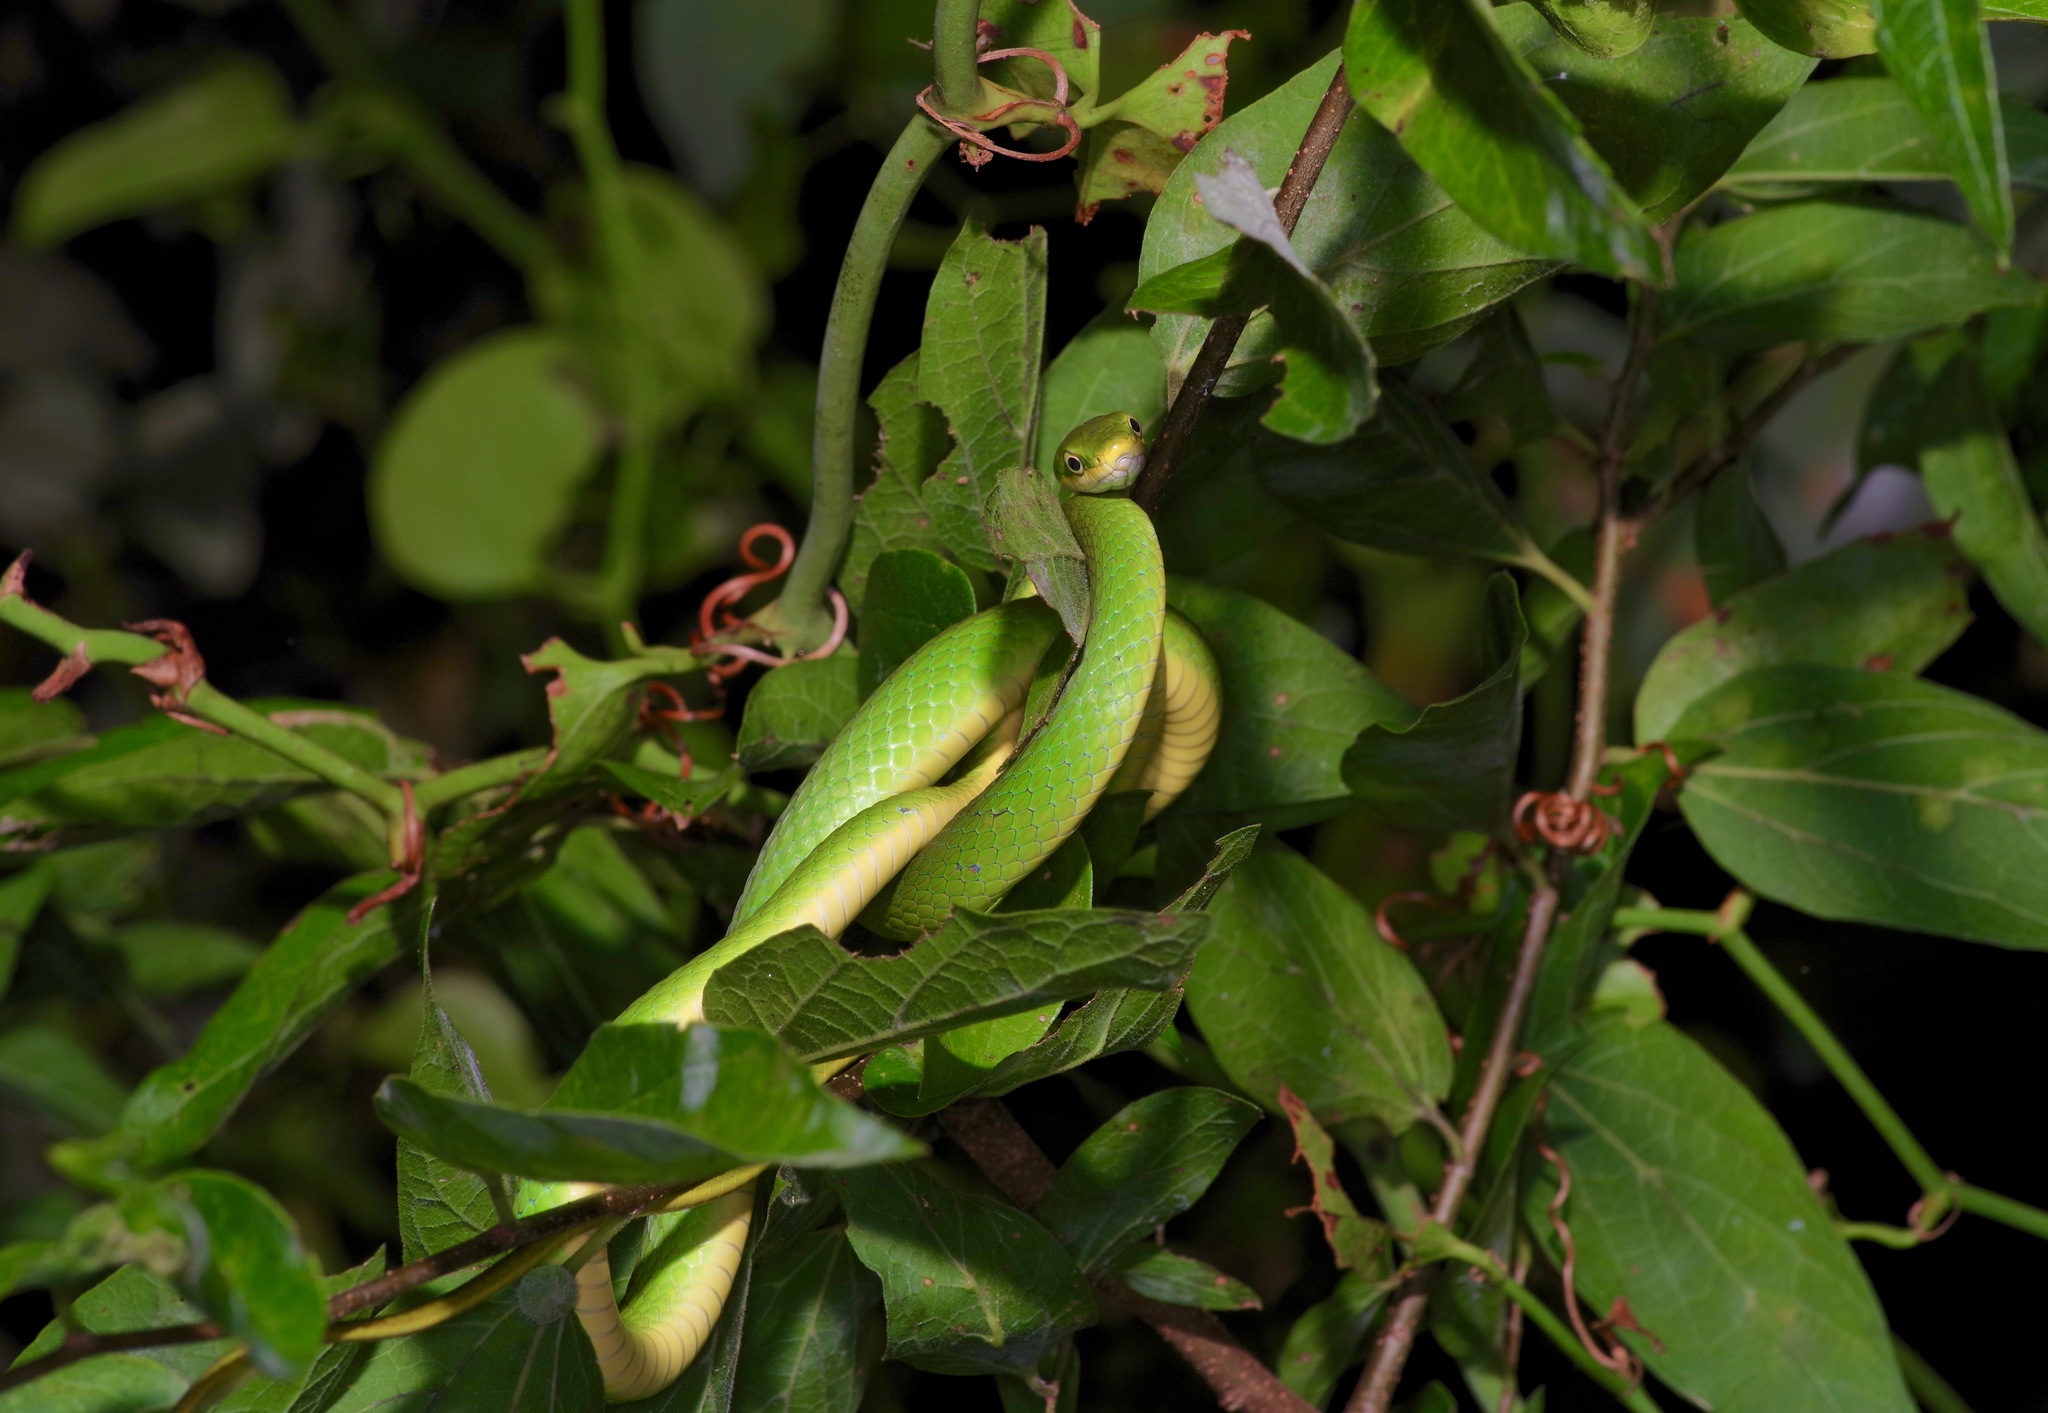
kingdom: Animalia
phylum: Chordata
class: Squamata
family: Colubridae
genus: Opheodrys
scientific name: Opheodrys aestivus
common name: Rough greensnake
